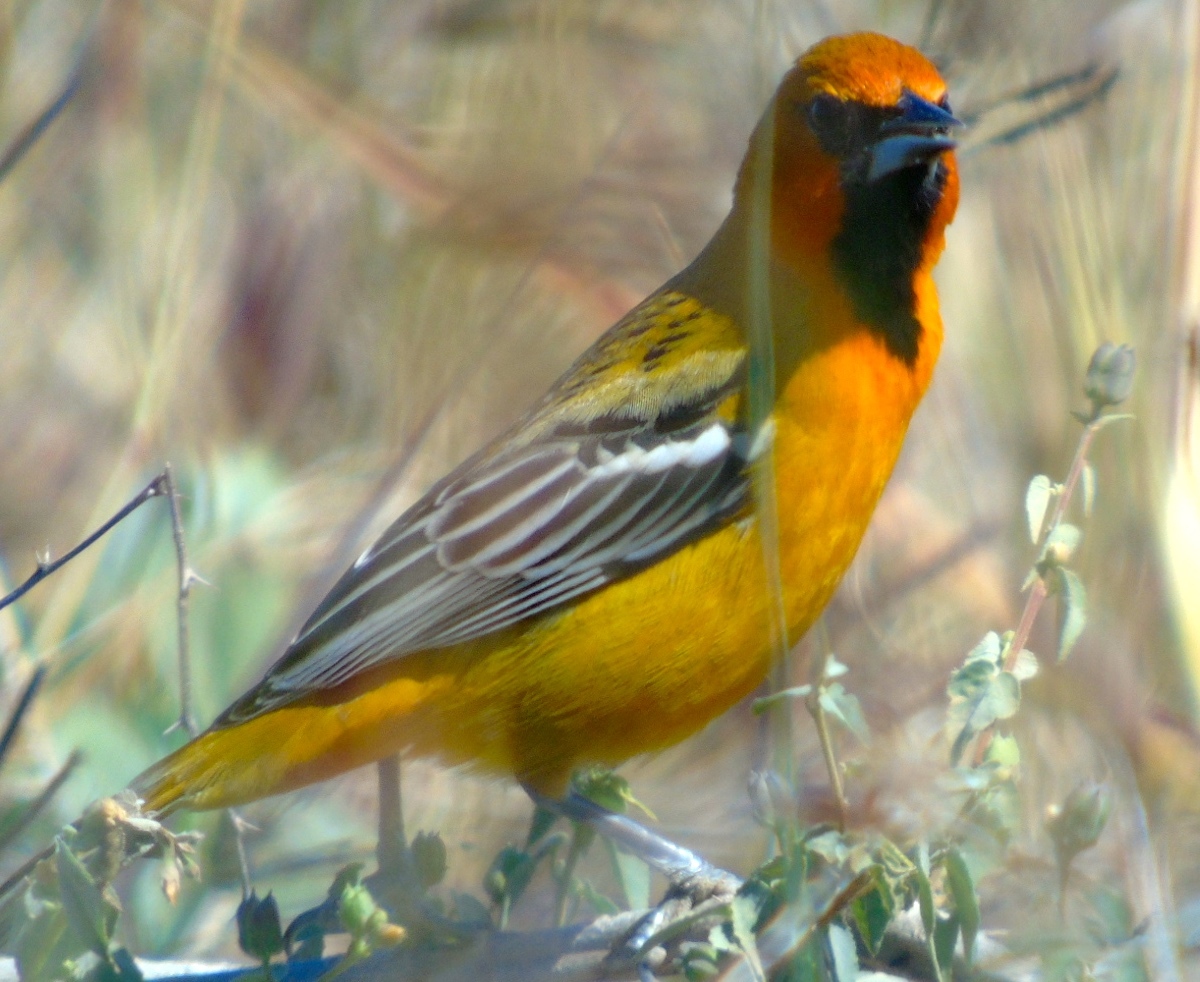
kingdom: Animalia
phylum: Chordata
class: Aves
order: Passeriformes
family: Icteridae
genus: Icterus
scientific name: Icterus pustulatus
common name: Streak-backed oriole
